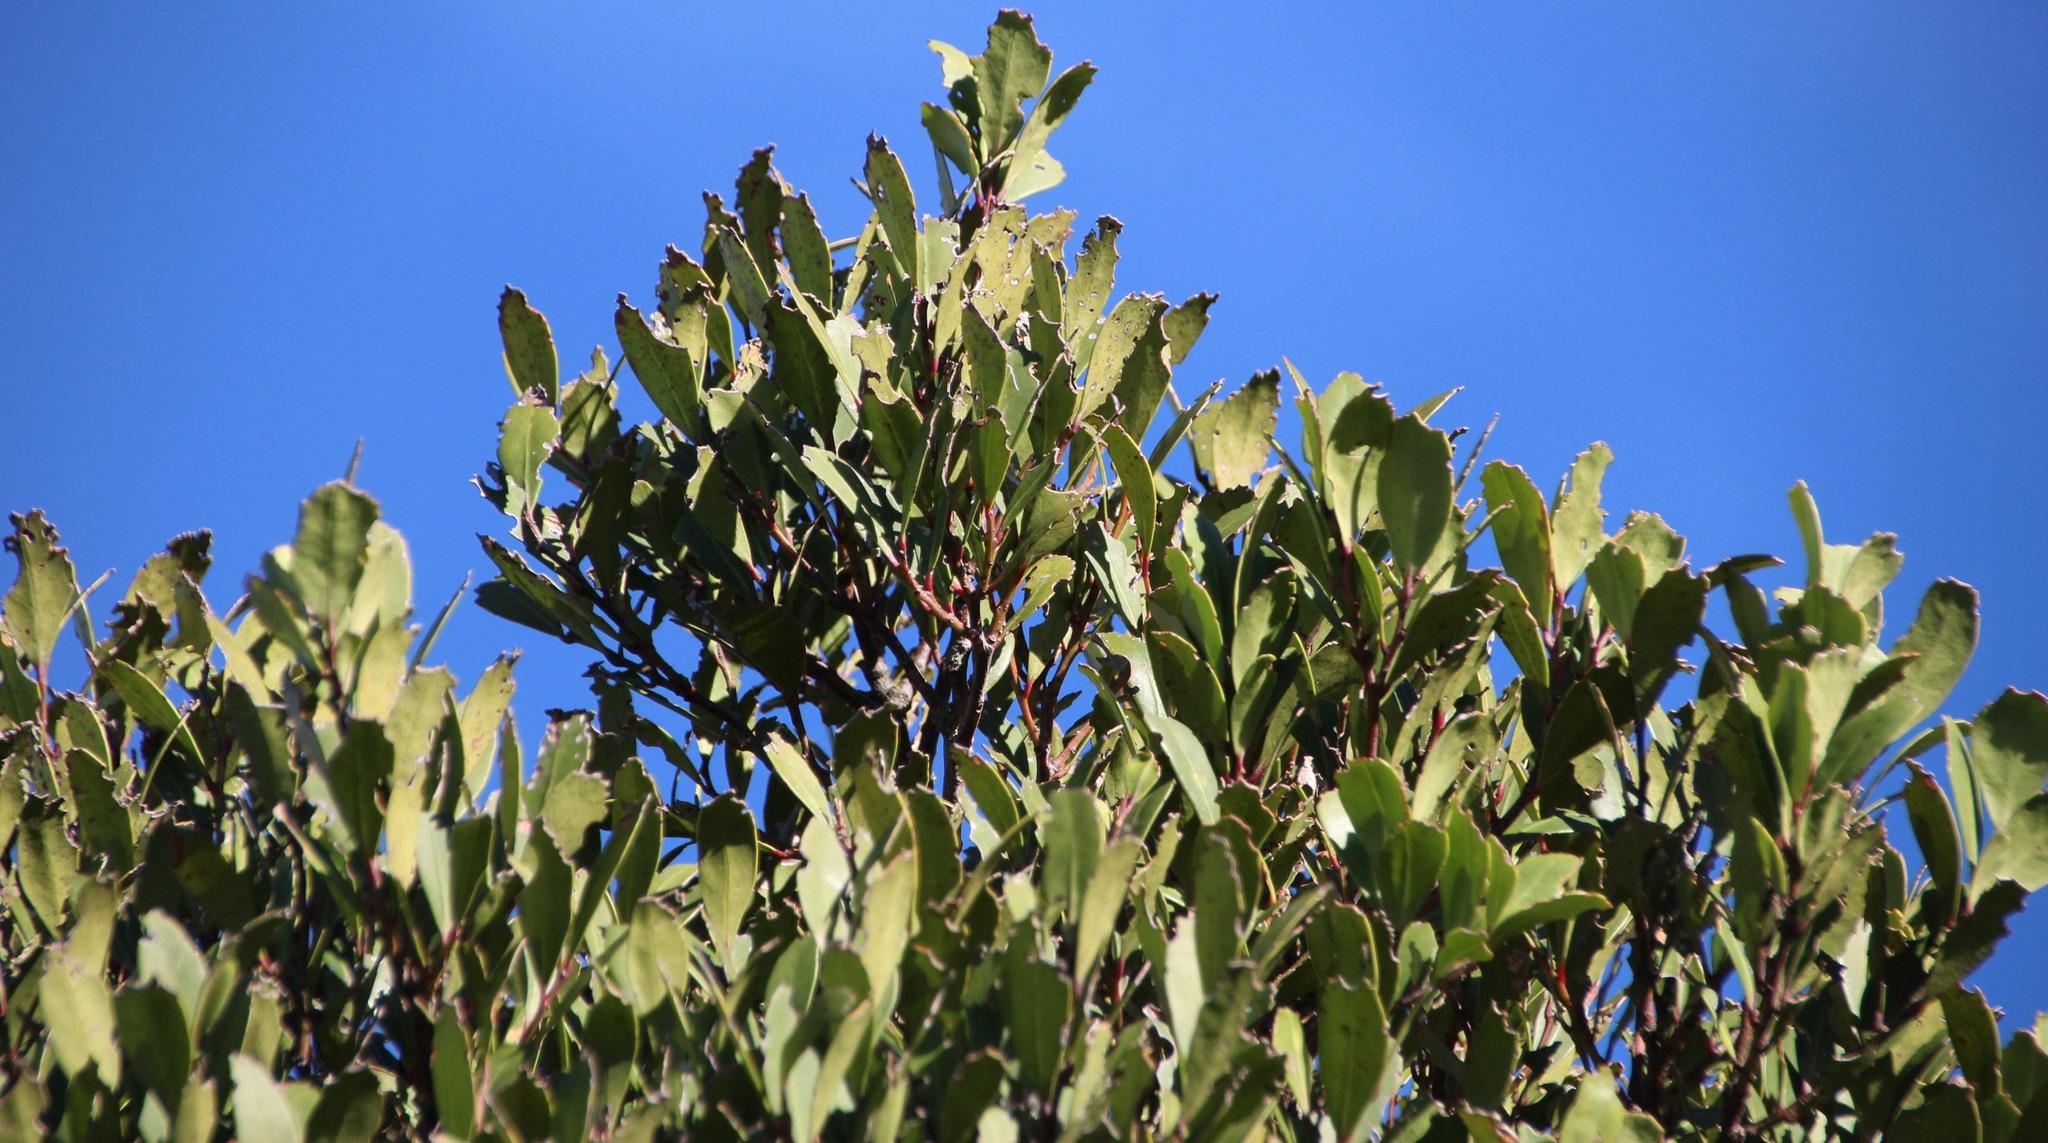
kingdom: Plantae
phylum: Tracheophyta
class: Magnoliopsida
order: Celastrales
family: Celastraceae
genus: Gymnosporia
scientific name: Gymnosporia laurina
